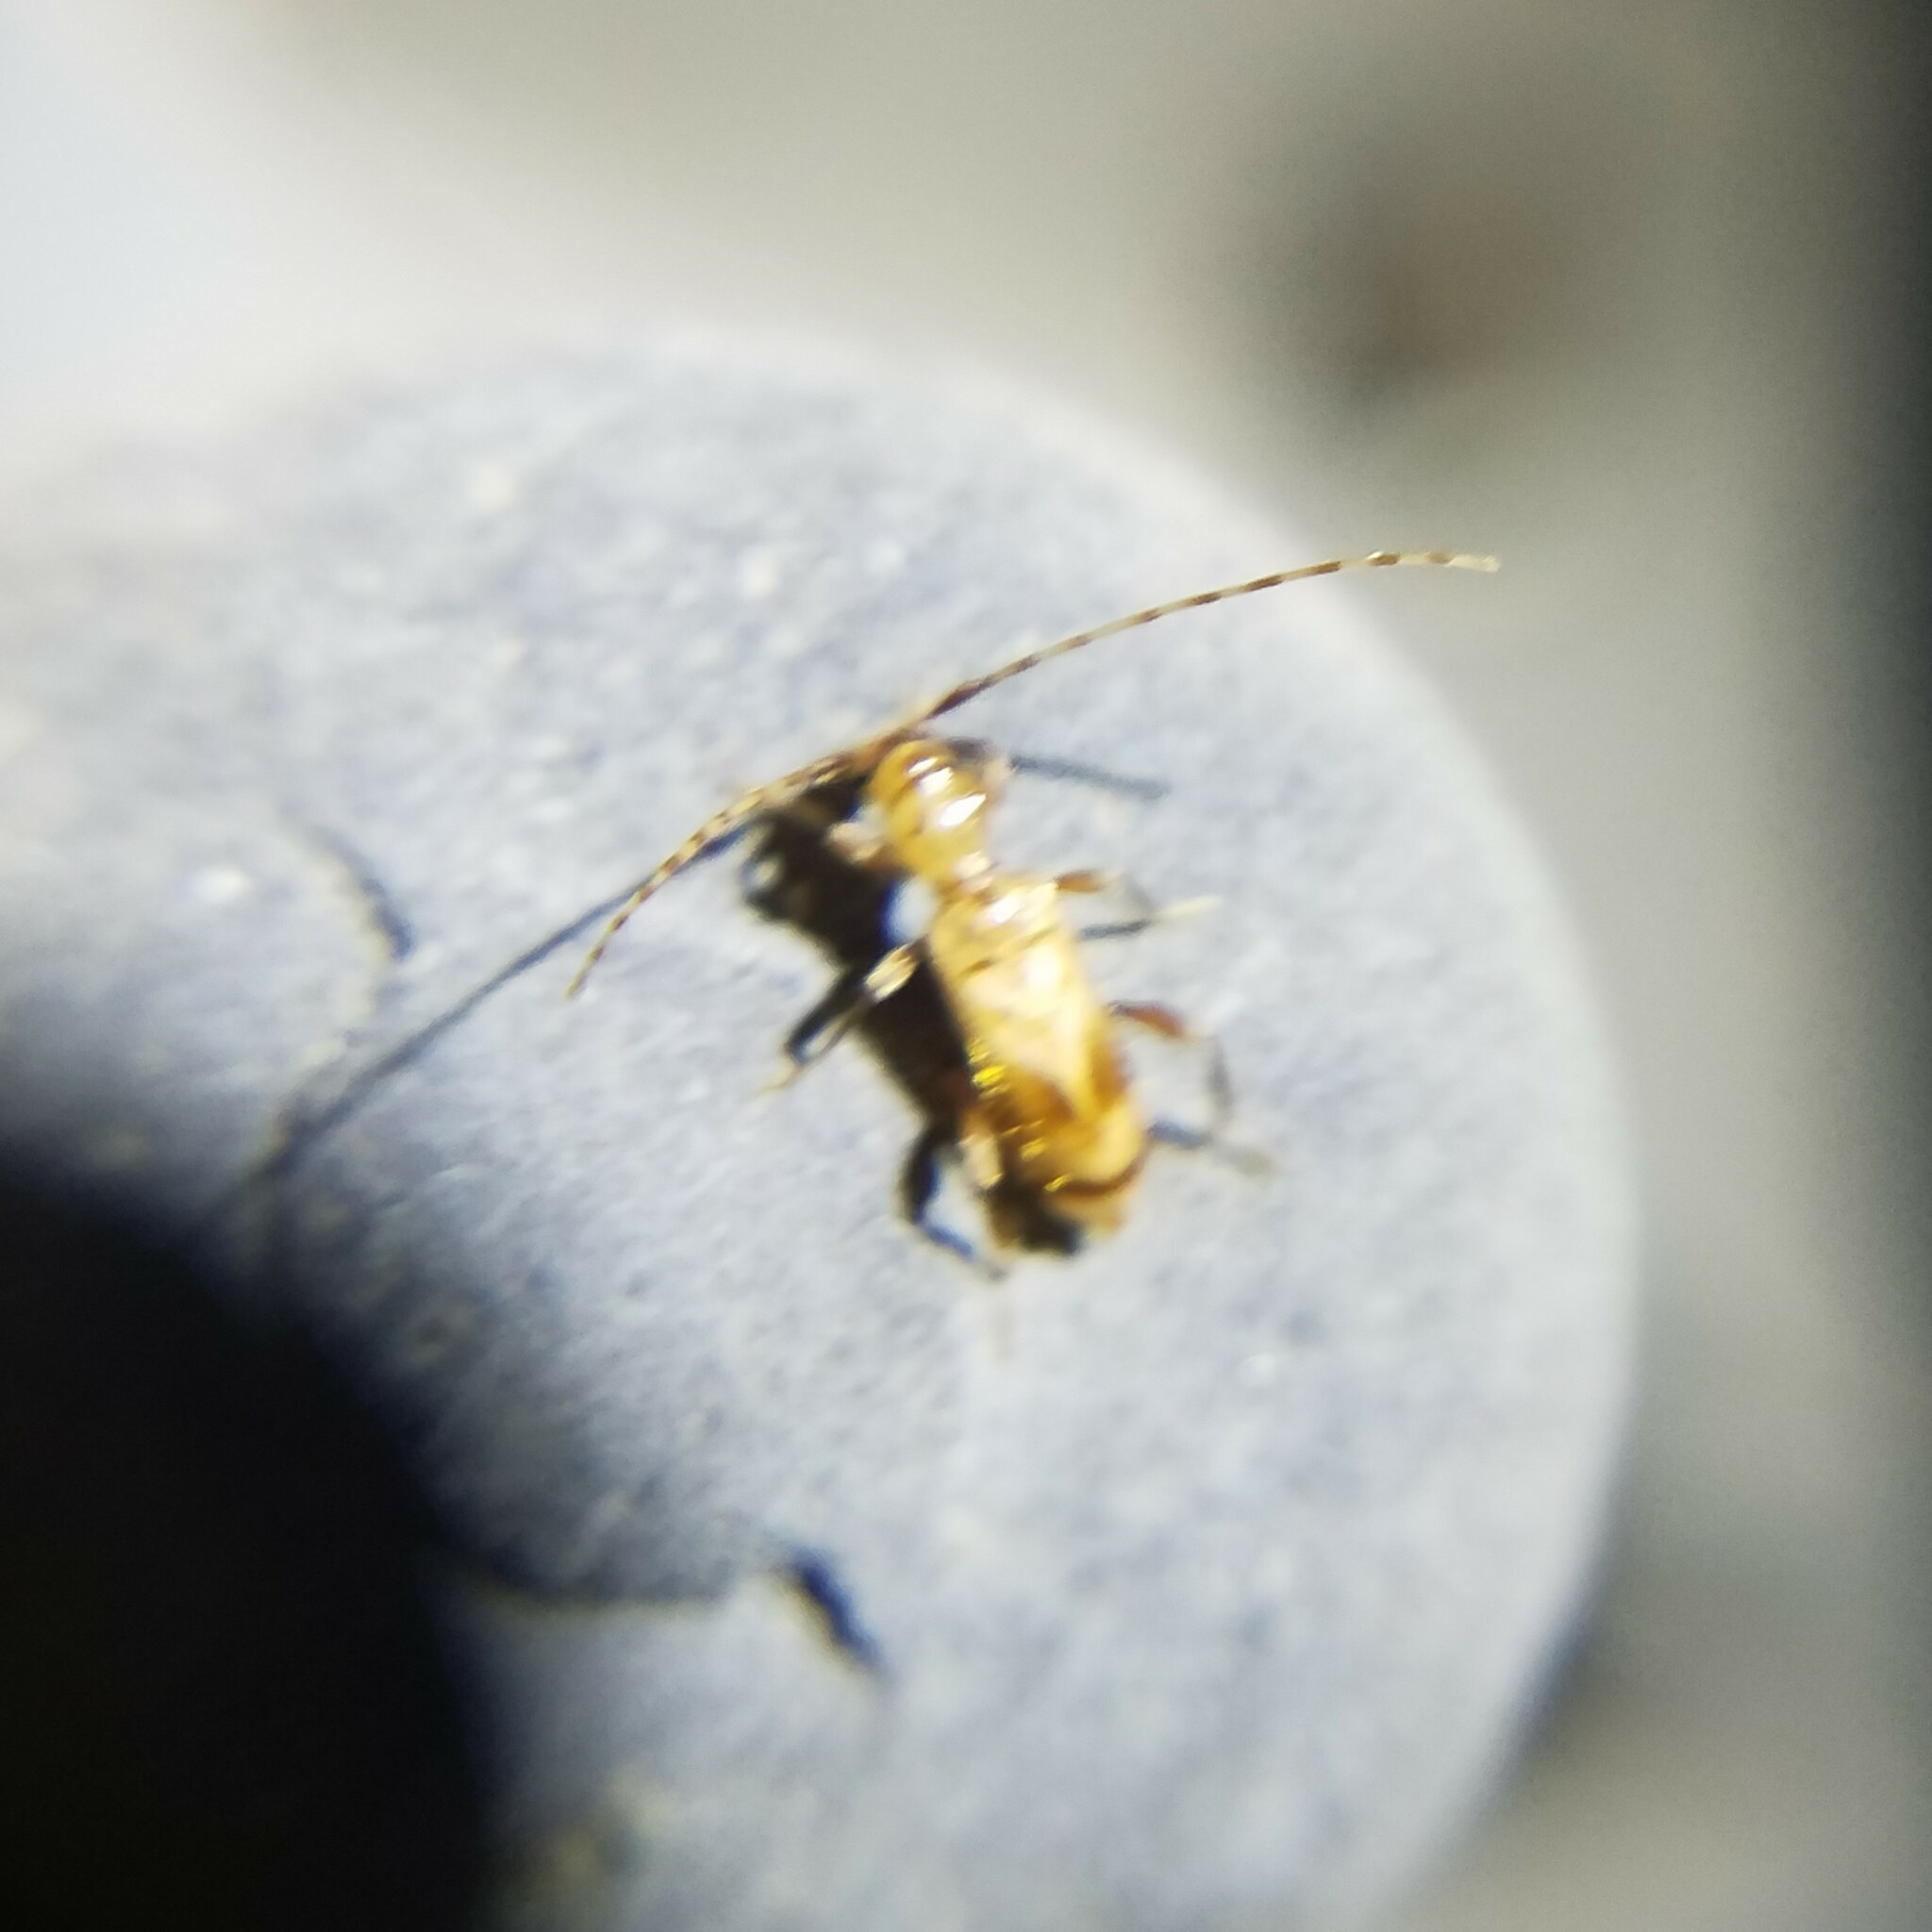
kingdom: Animalia
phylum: Arthropoda
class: Insecta
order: Coleoptera
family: Cerambycidae
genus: Obrium
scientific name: Obrium maculatum
